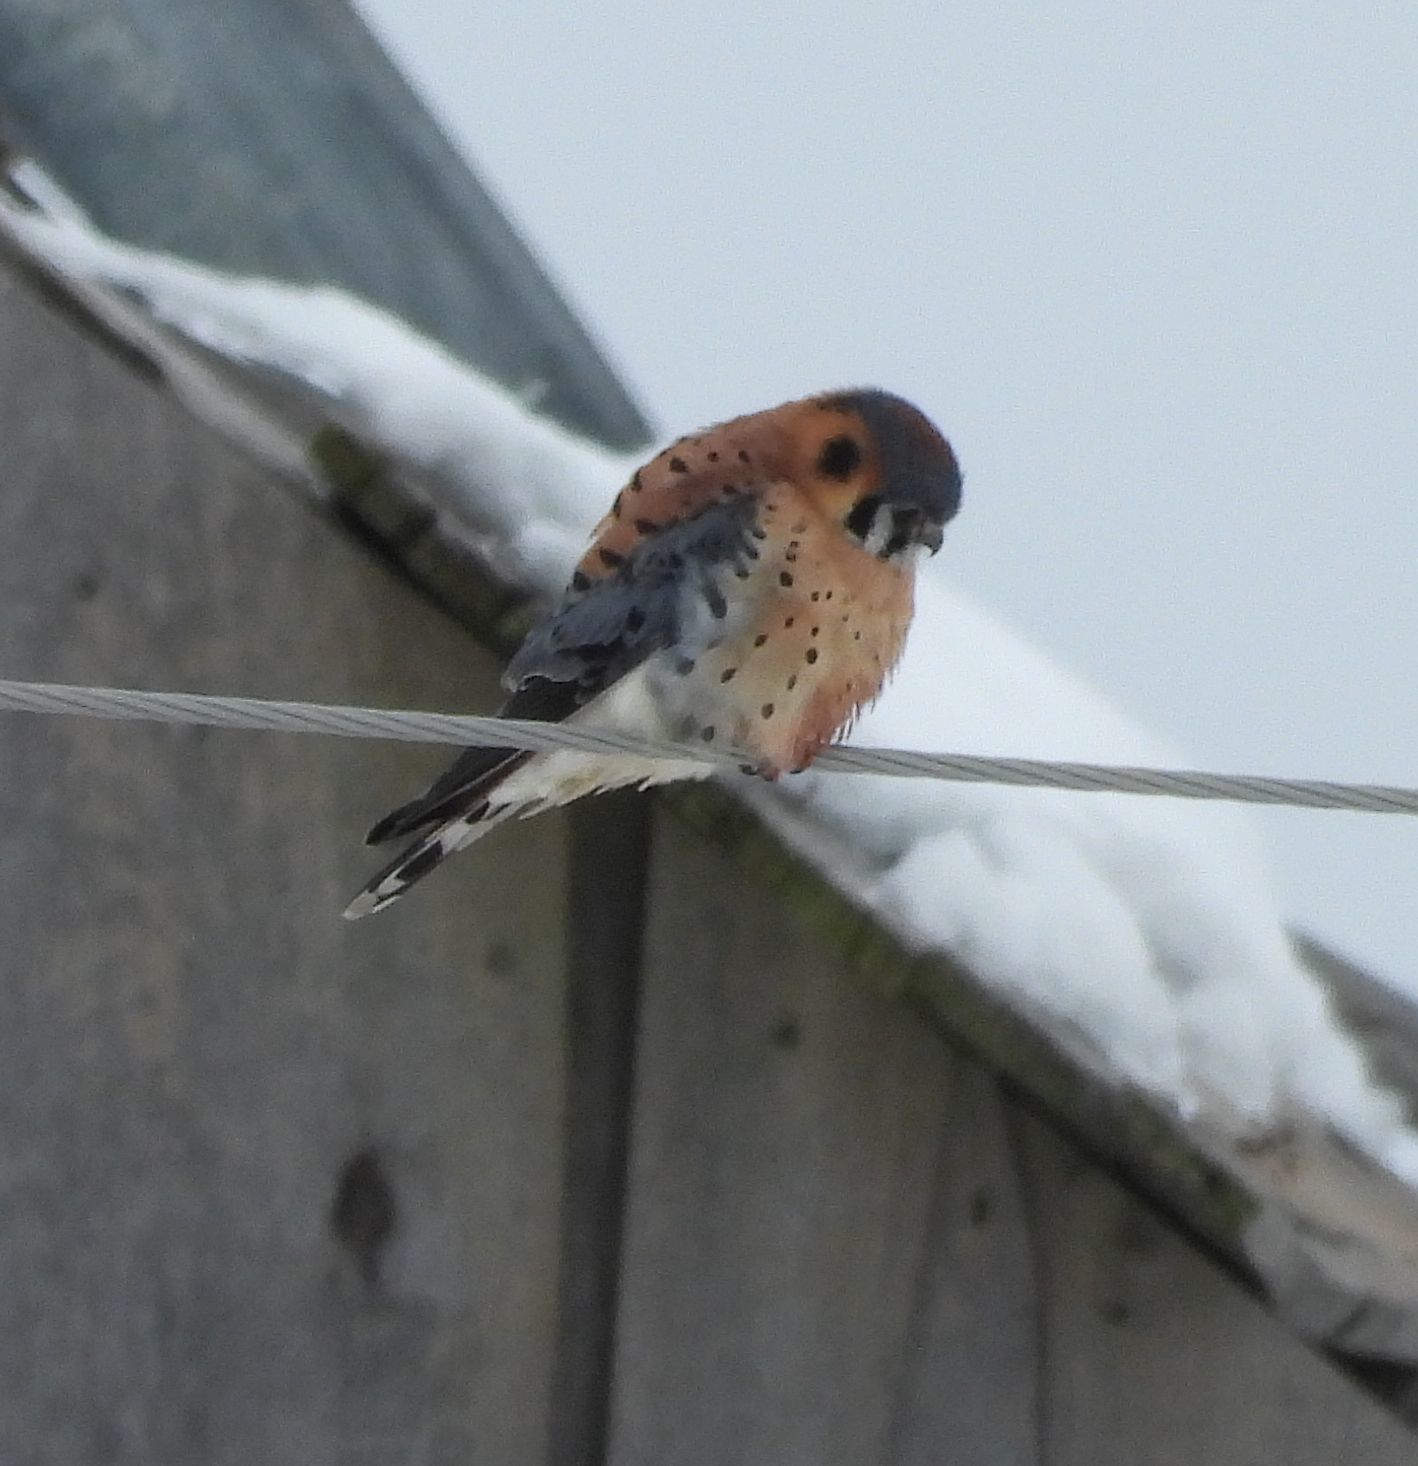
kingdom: Animalia
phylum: Chordata
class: Aves
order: Falconiformes
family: Falconidae
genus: Falco
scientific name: Falco sparverius
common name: American kestrel
